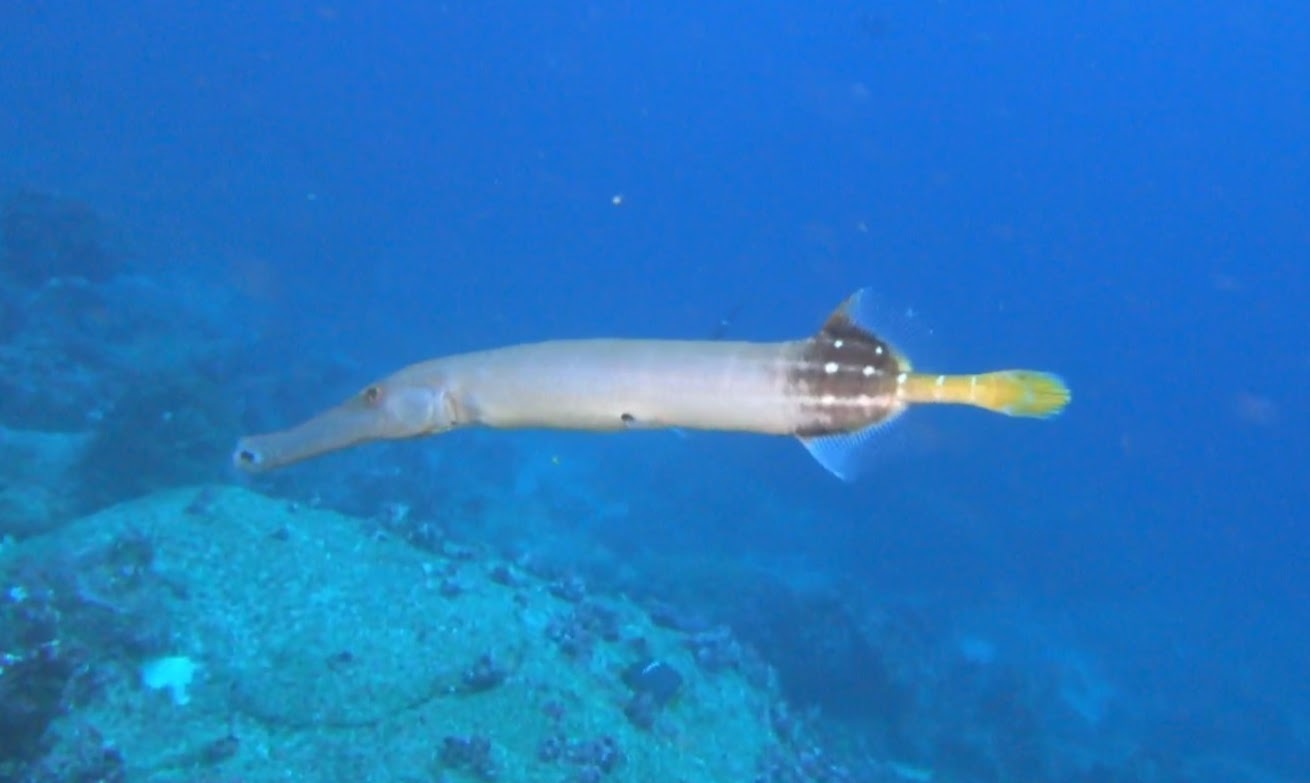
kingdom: Animalia
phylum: Chordata
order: Syngnathiformes
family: Aulostomidae
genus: Aulostomus
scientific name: Aulostomus chinensis
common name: Chinese trumpetfish
